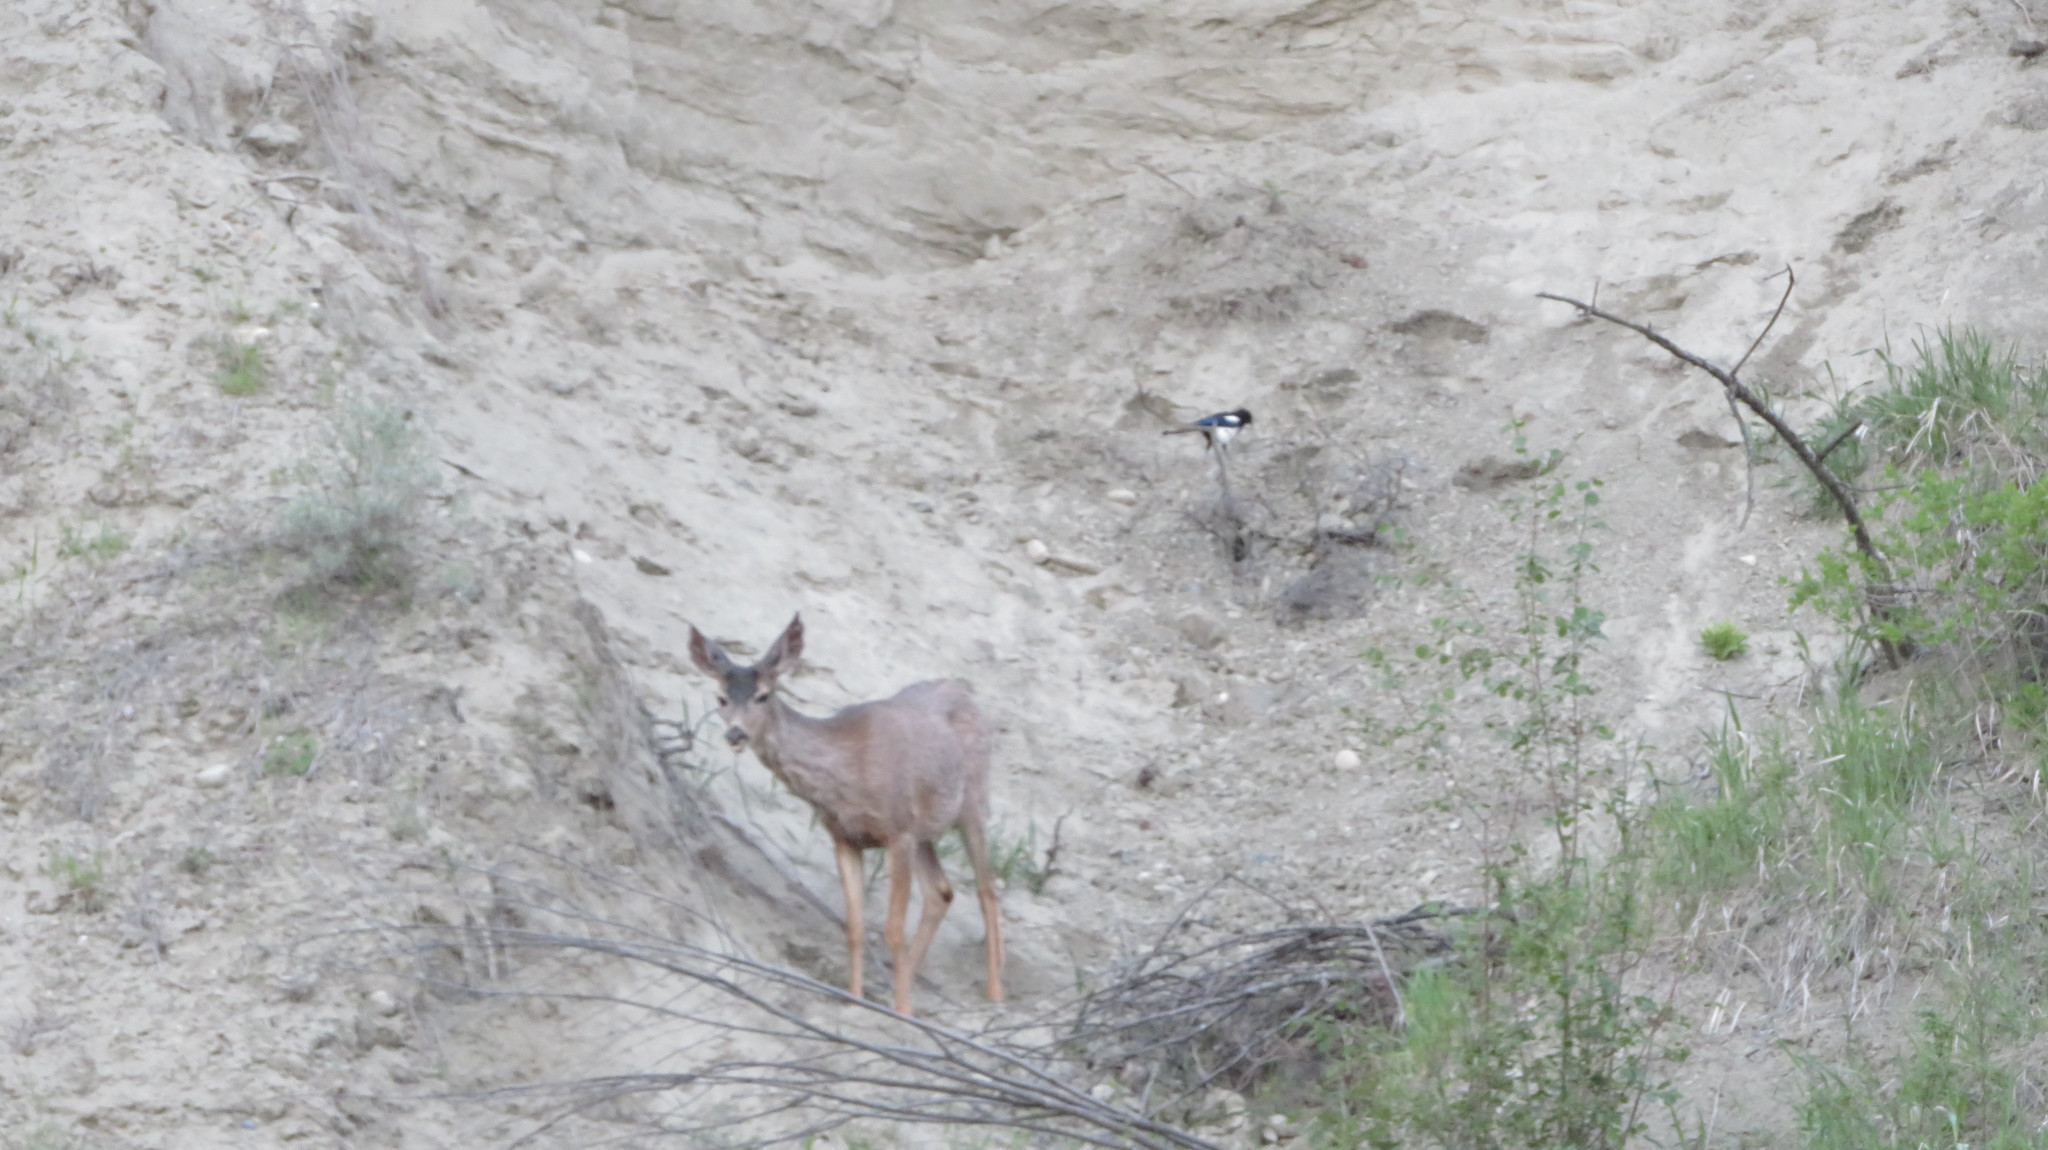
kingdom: Animalia
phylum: Chordata
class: Mammalia
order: Artiodactyla
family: Cervidae
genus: Odocoileus
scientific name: Odocoileus hemionus
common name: Mule deer
